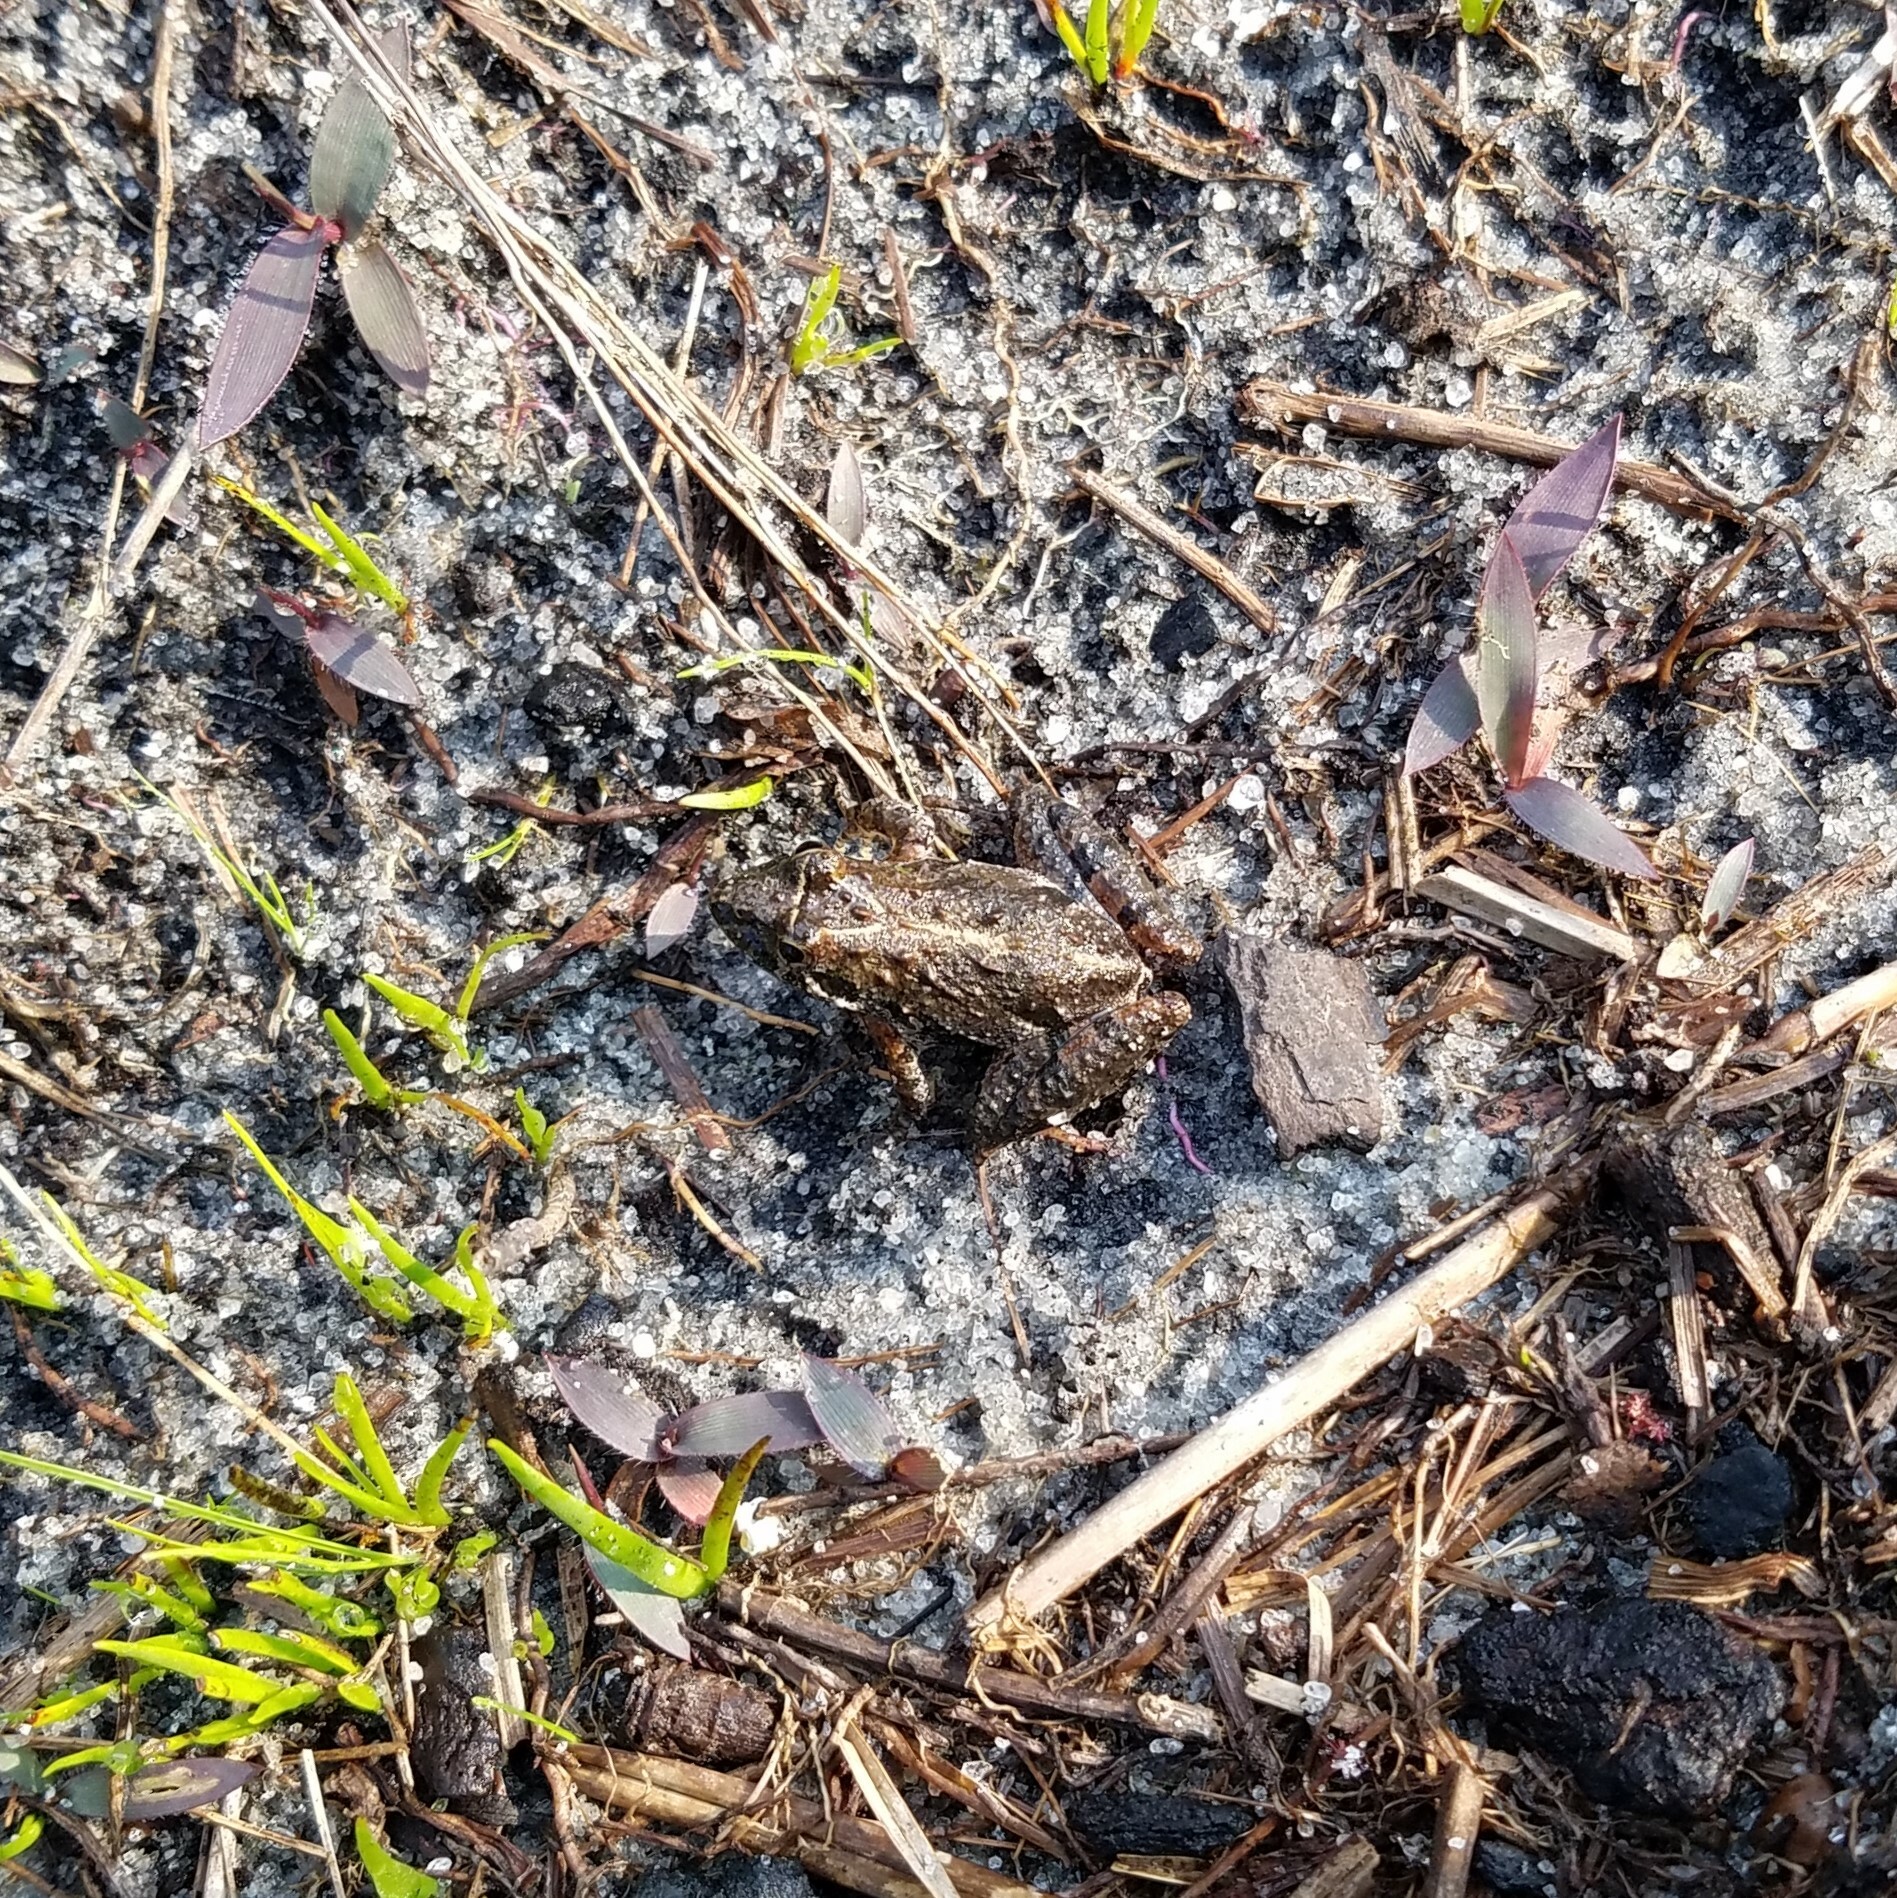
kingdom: Animalia
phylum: Chordata
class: Amphibia
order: Anura
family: Hylidae
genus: Acris
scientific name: Acris gryllus
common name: Southern cricket frog
